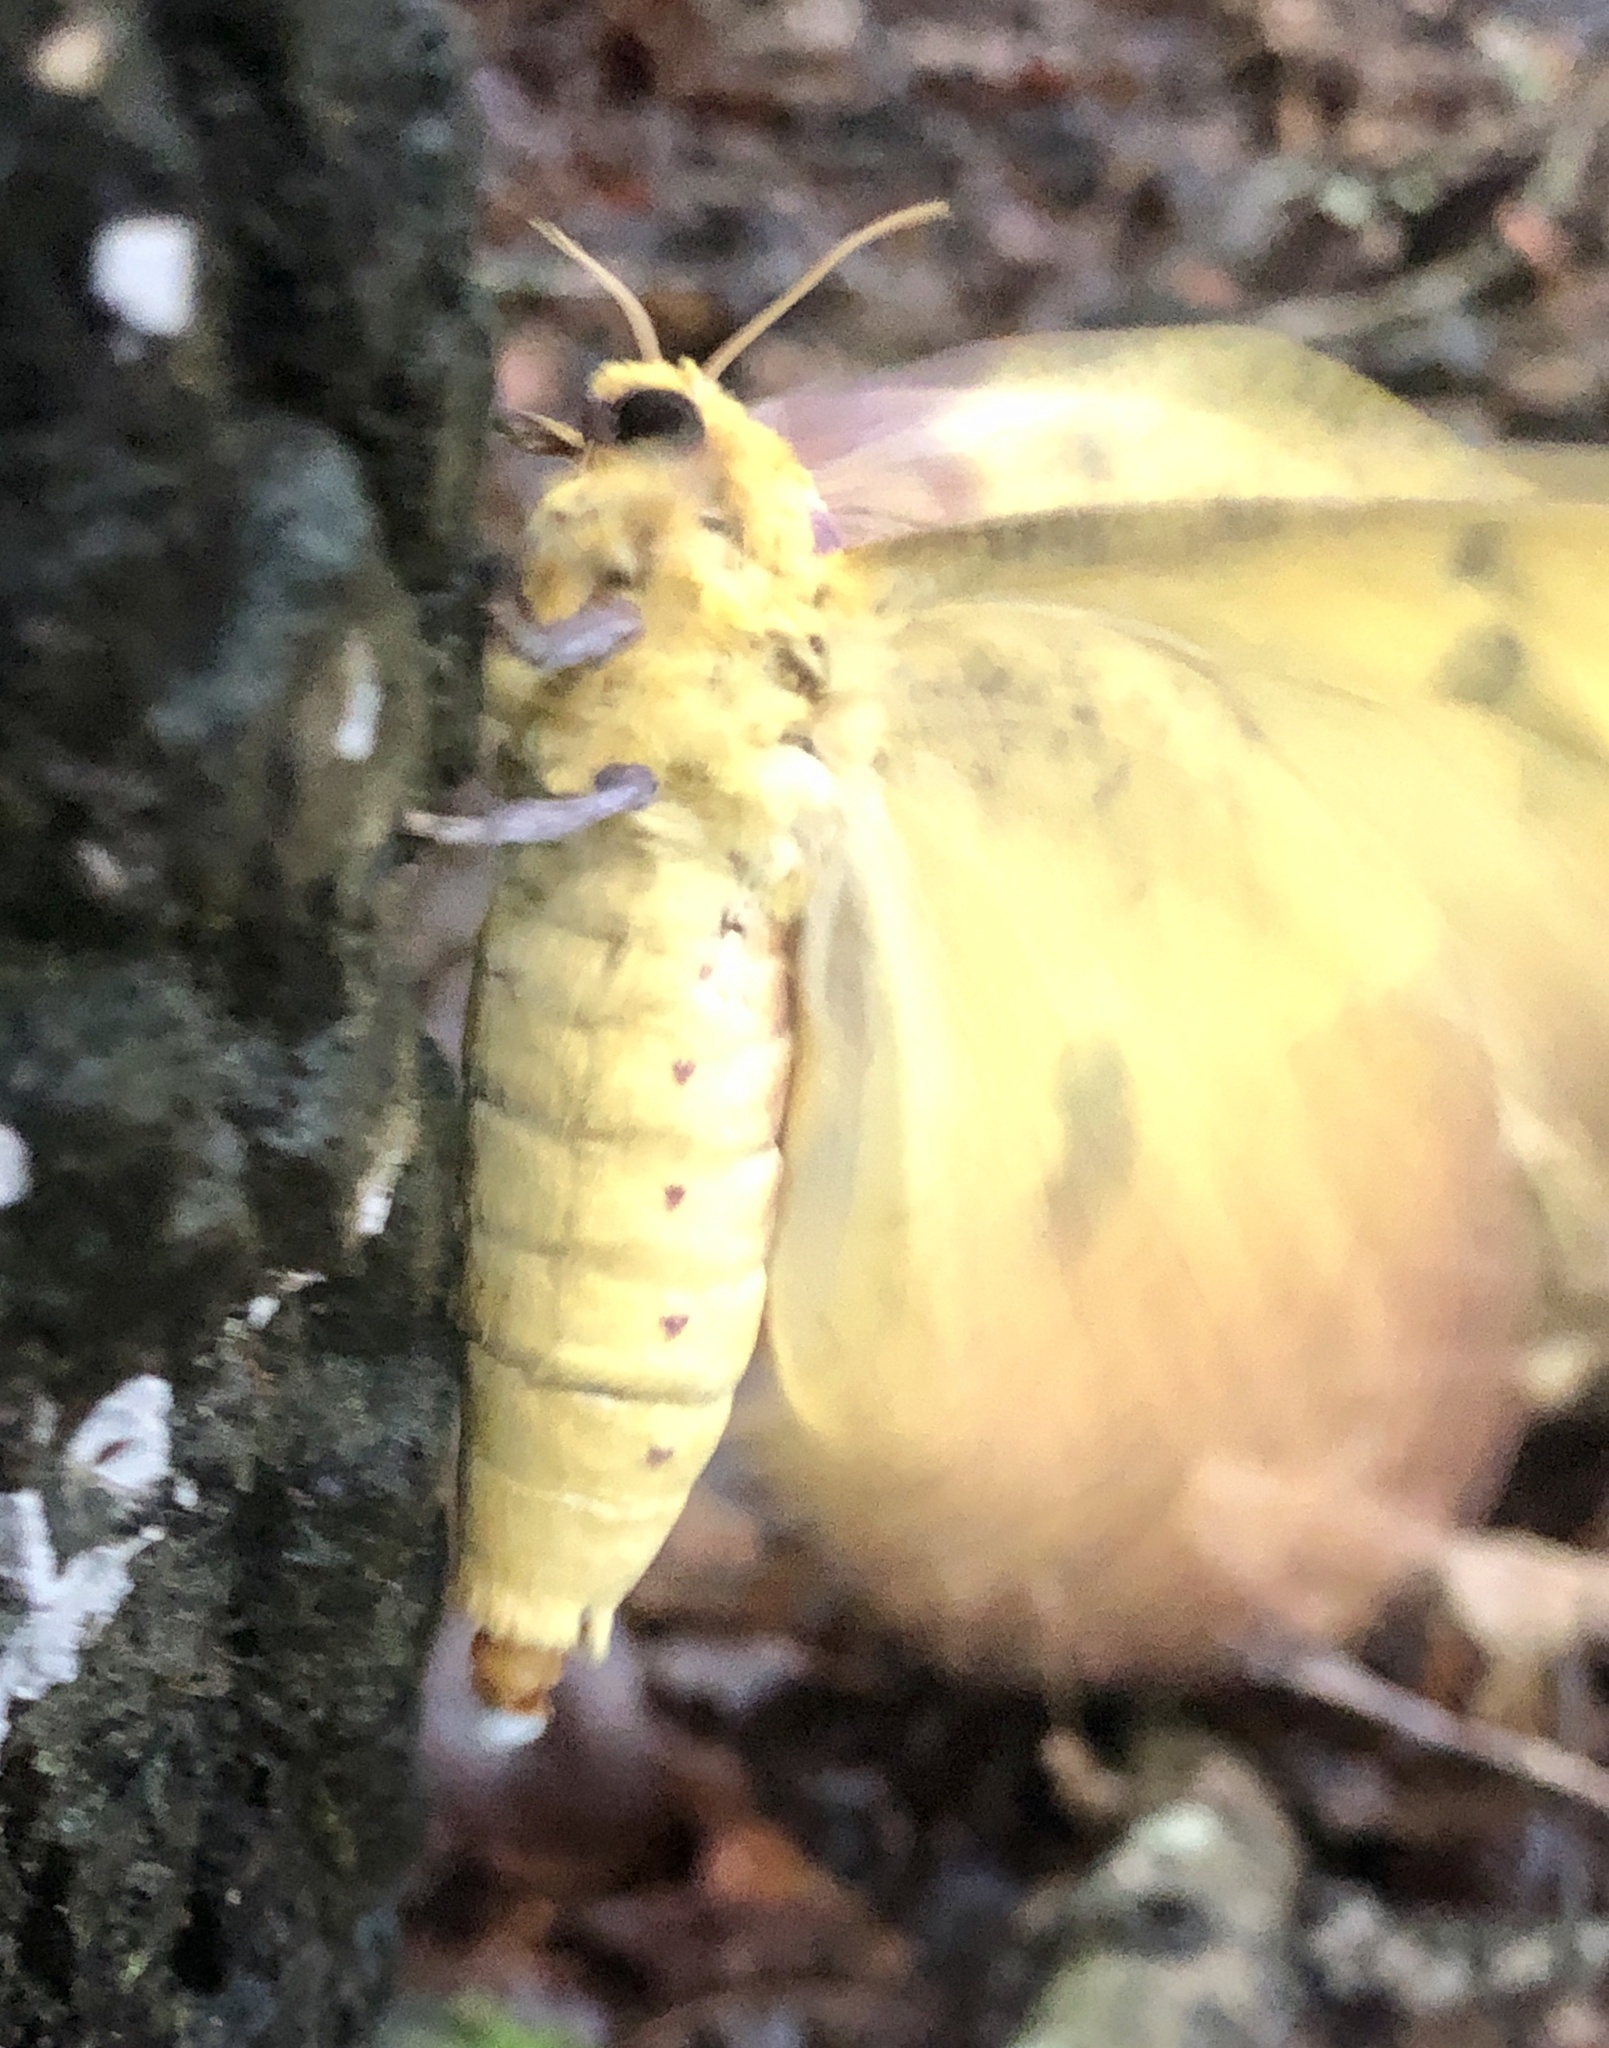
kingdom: Animalia
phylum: Arthropoda
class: Insecta
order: Lepidoptera
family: Saturniidae
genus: Eacles
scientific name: Eacles imperialis
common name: Imperial moth
